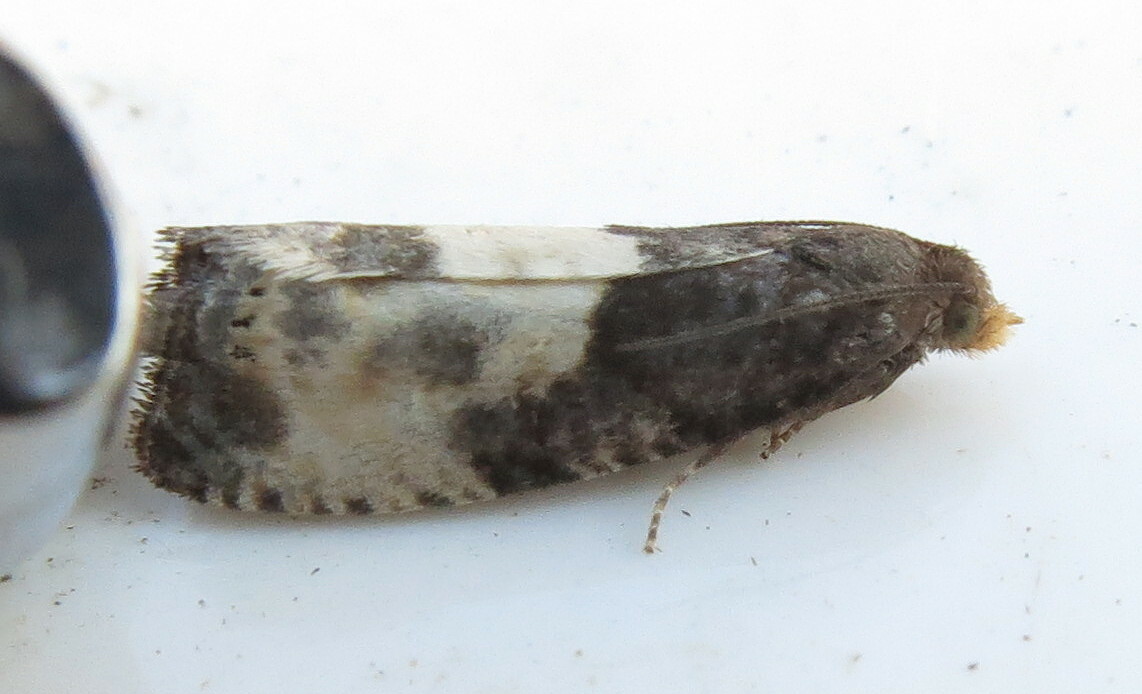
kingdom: Animalia
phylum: Arthropoda
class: Insecta
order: Lepidoptera
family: Tortricidae
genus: Notocelia
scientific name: Notocelia cynosbatella
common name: Yellow-faced bell moth
